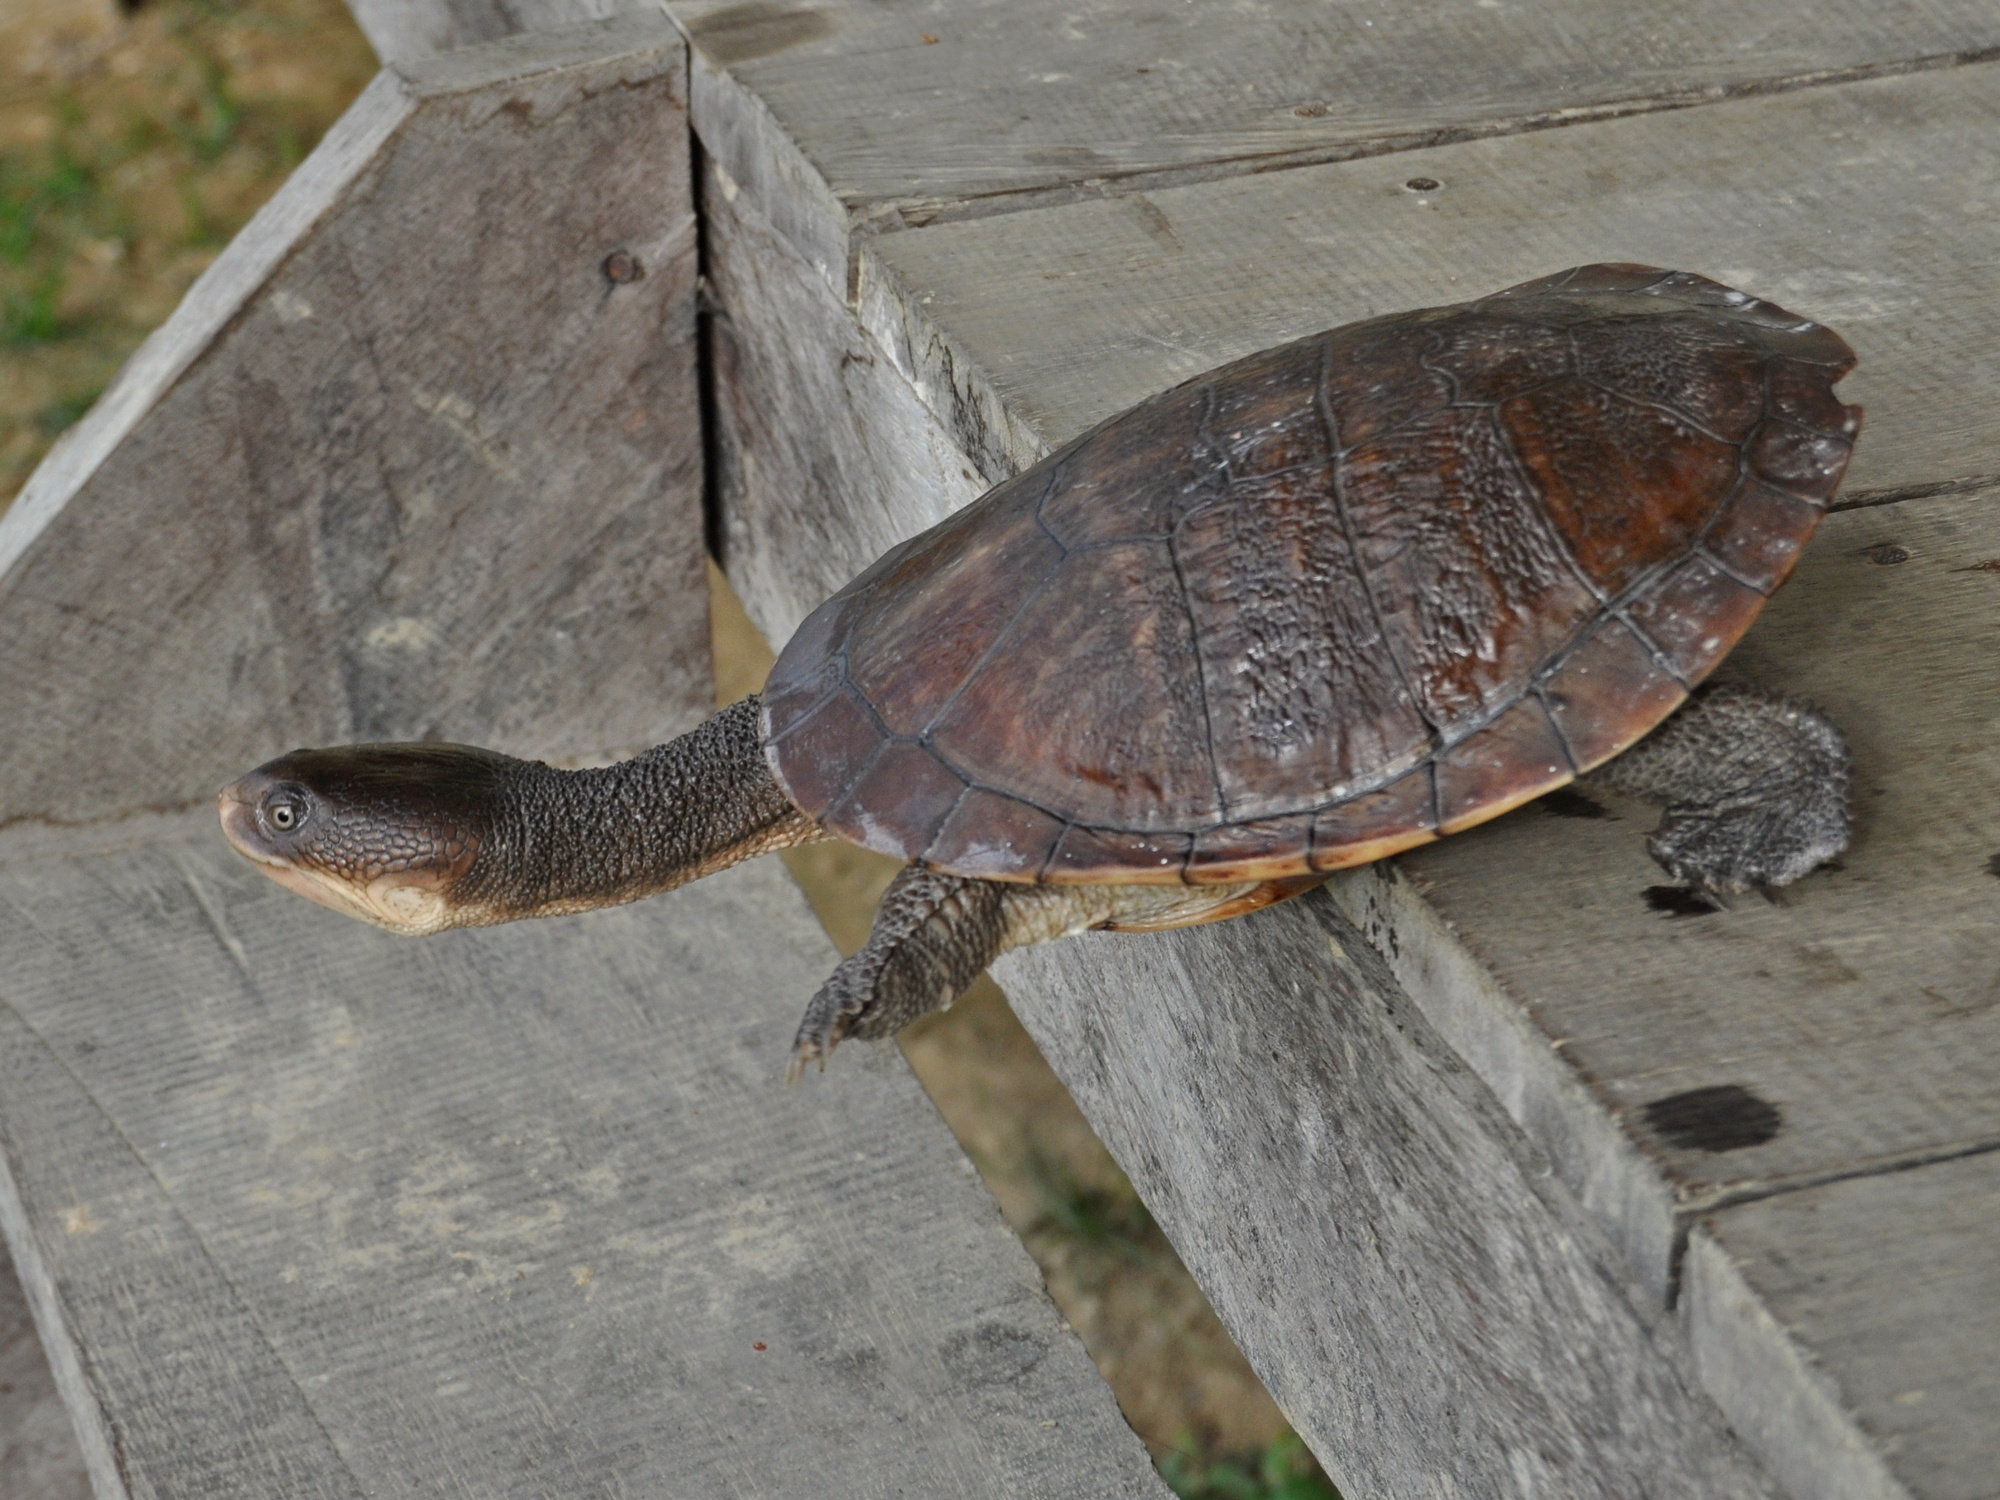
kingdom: Animalia
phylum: Chordata
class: Testudines
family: Chelidae
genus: Chelodina
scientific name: Chelodina gunaleni
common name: Gunalens snake-necked turtle
